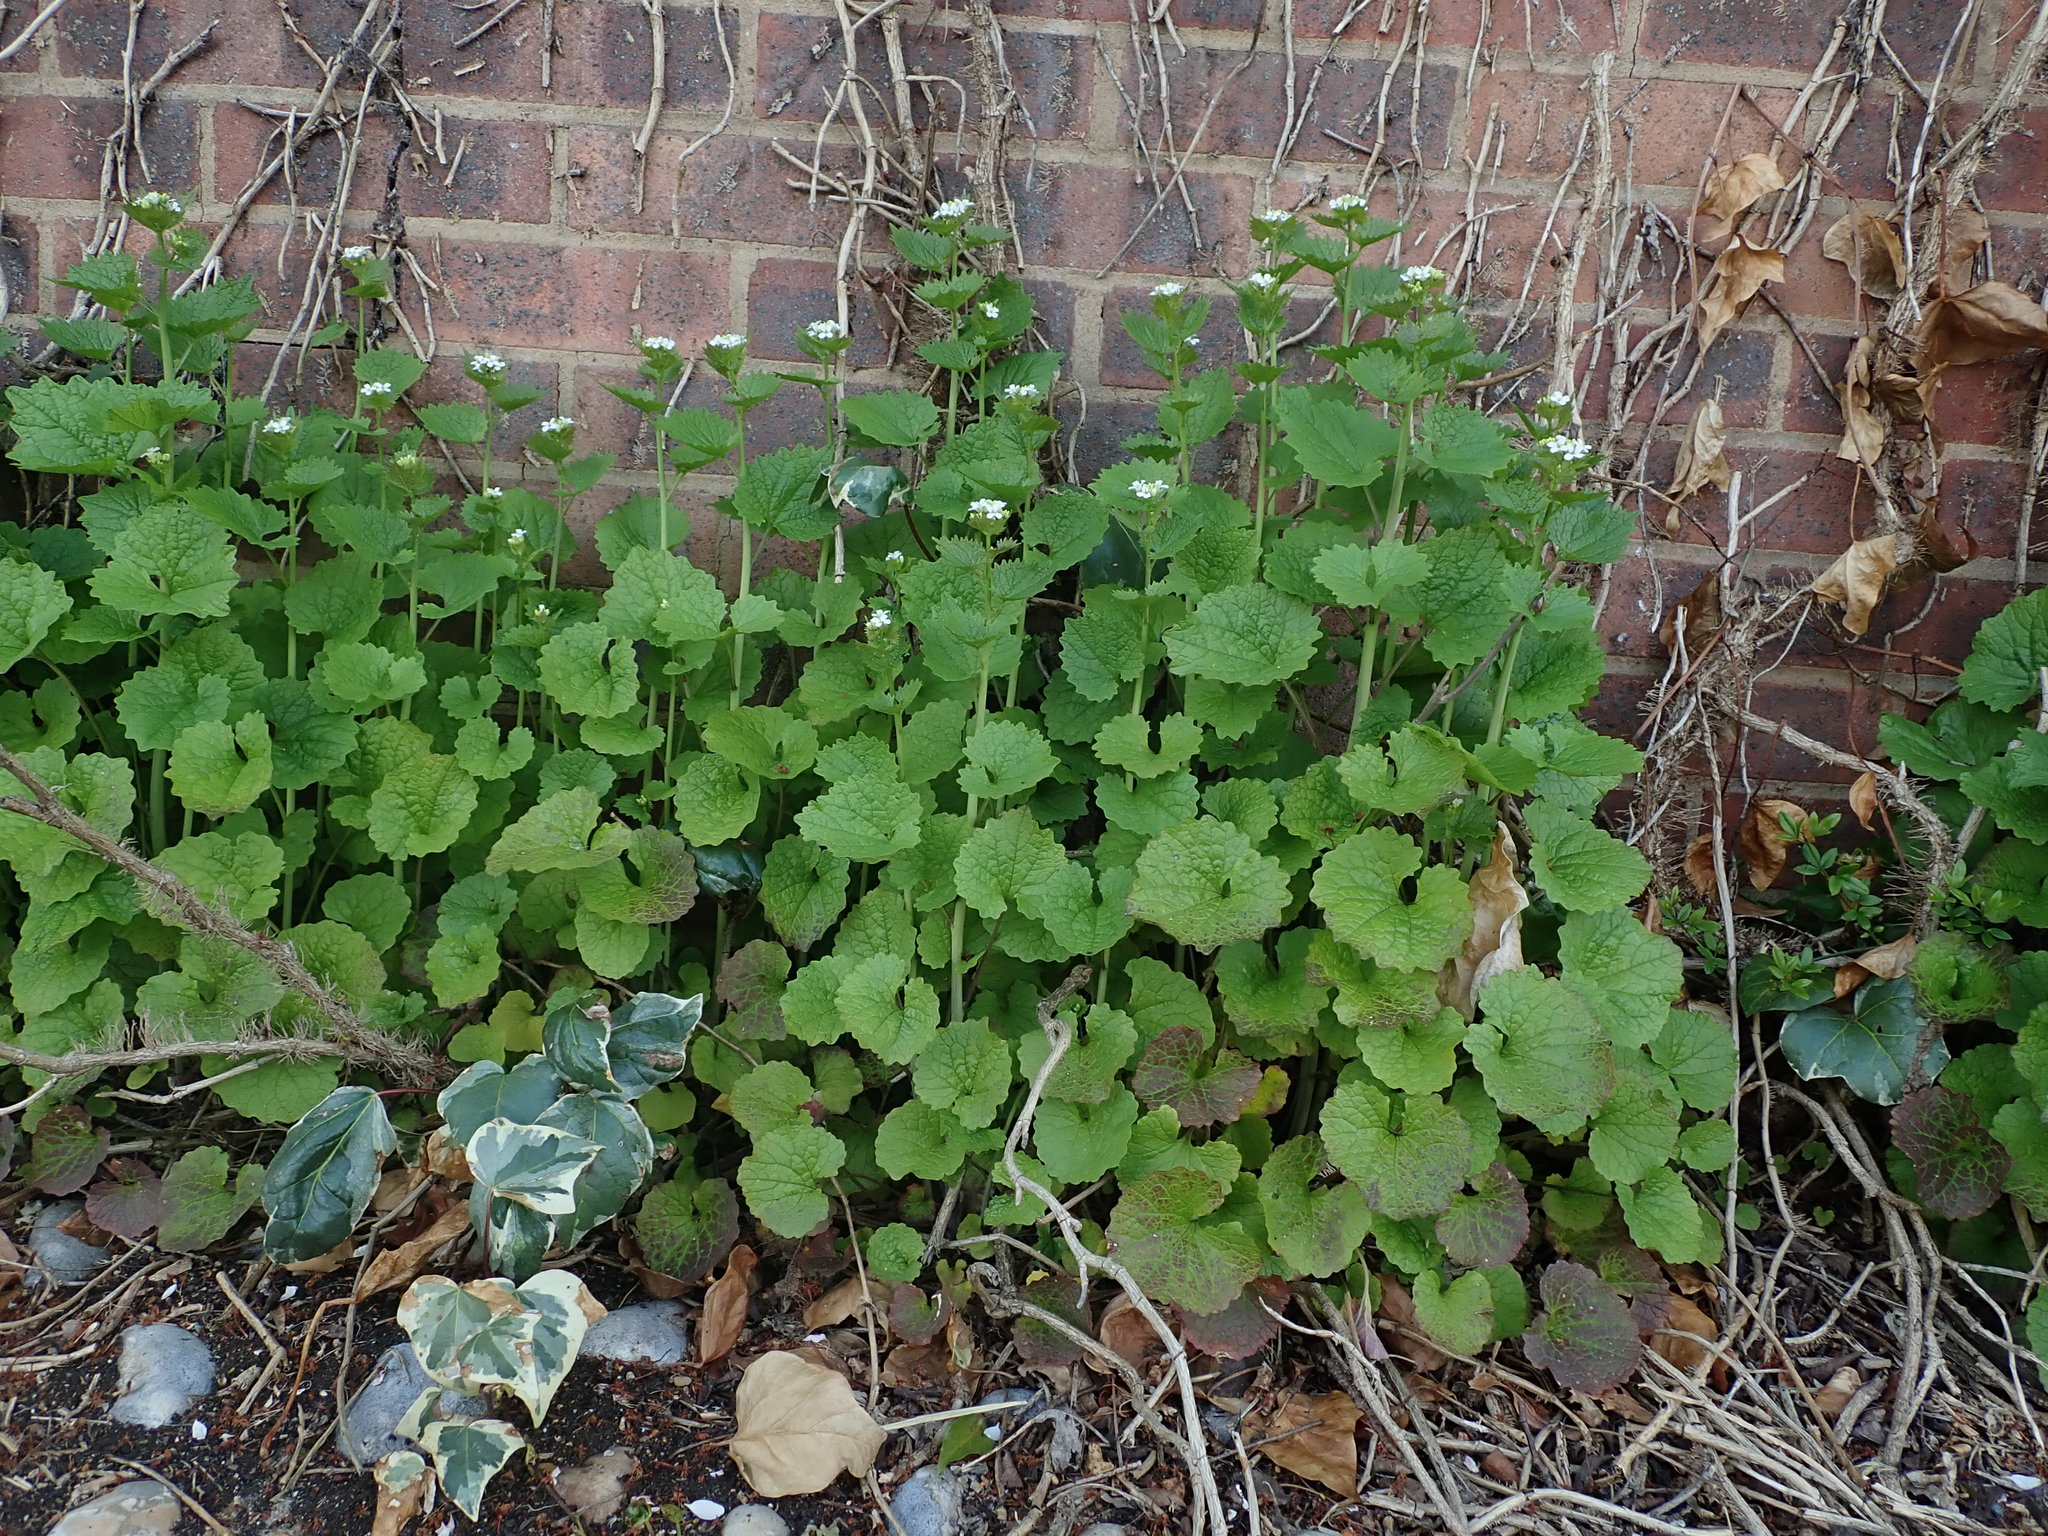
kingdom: Plantae
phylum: Tracheophyta
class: Magnoliopsida
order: Brassicales
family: Brassicaceae
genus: Alliaria
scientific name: Alliaria petiolata
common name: Garlic mustard
